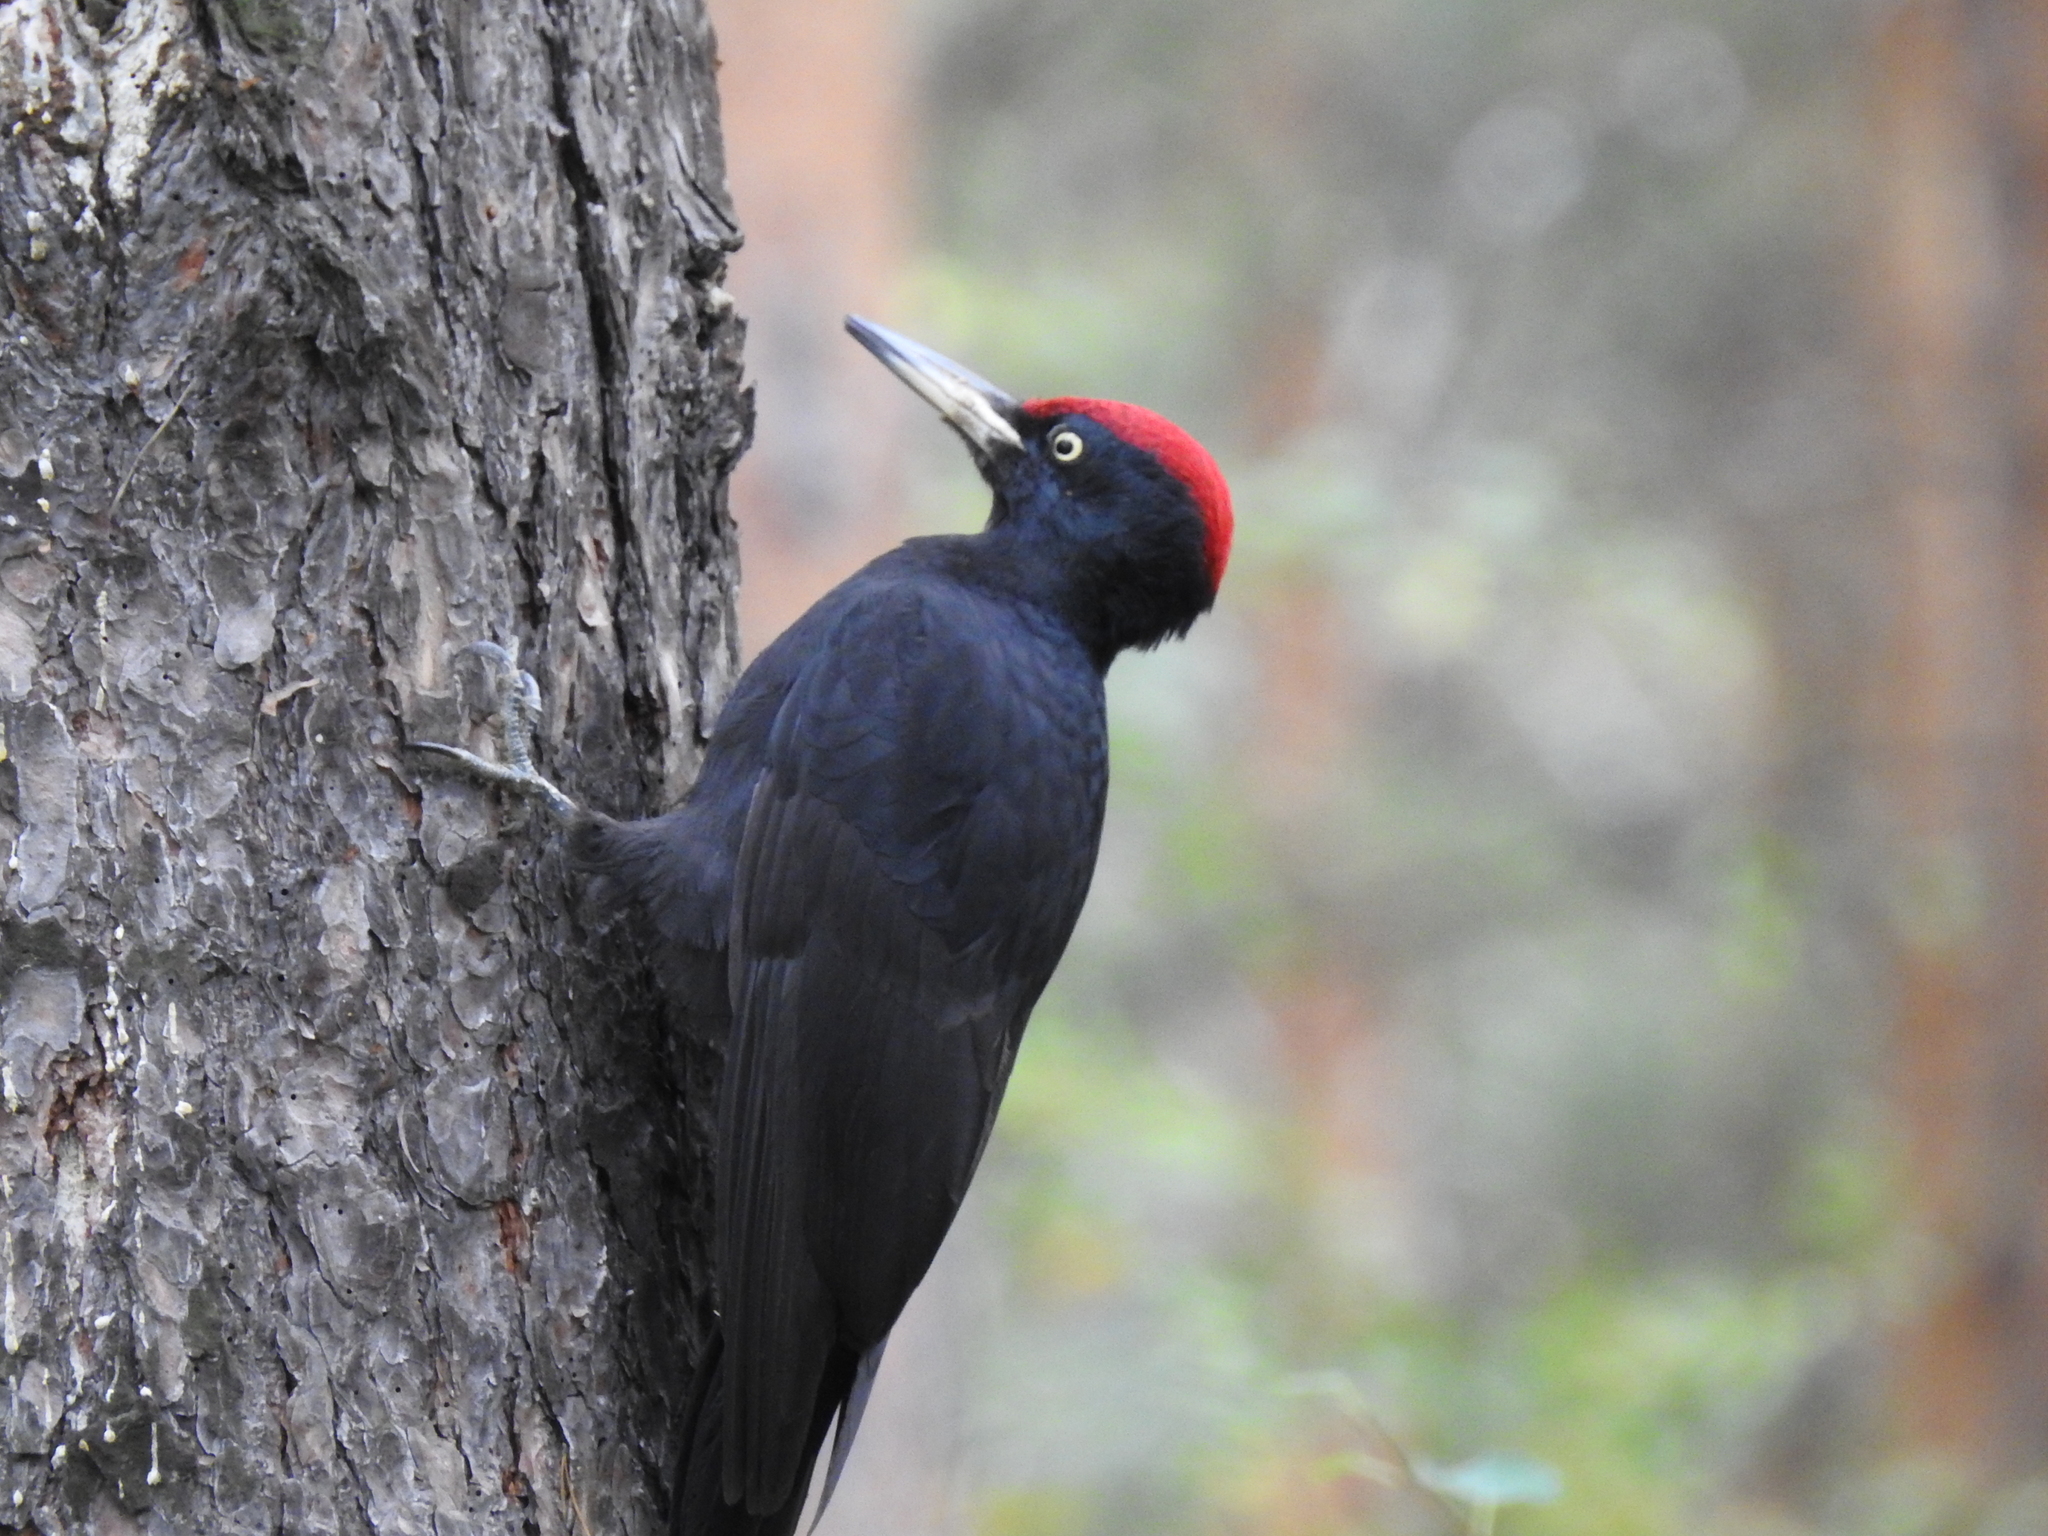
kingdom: Animalia
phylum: Chordata
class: Aves
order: Piciformes
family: Picidae
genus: Dryocopus
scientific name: Dryocopus martius
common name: Black woodpecker
